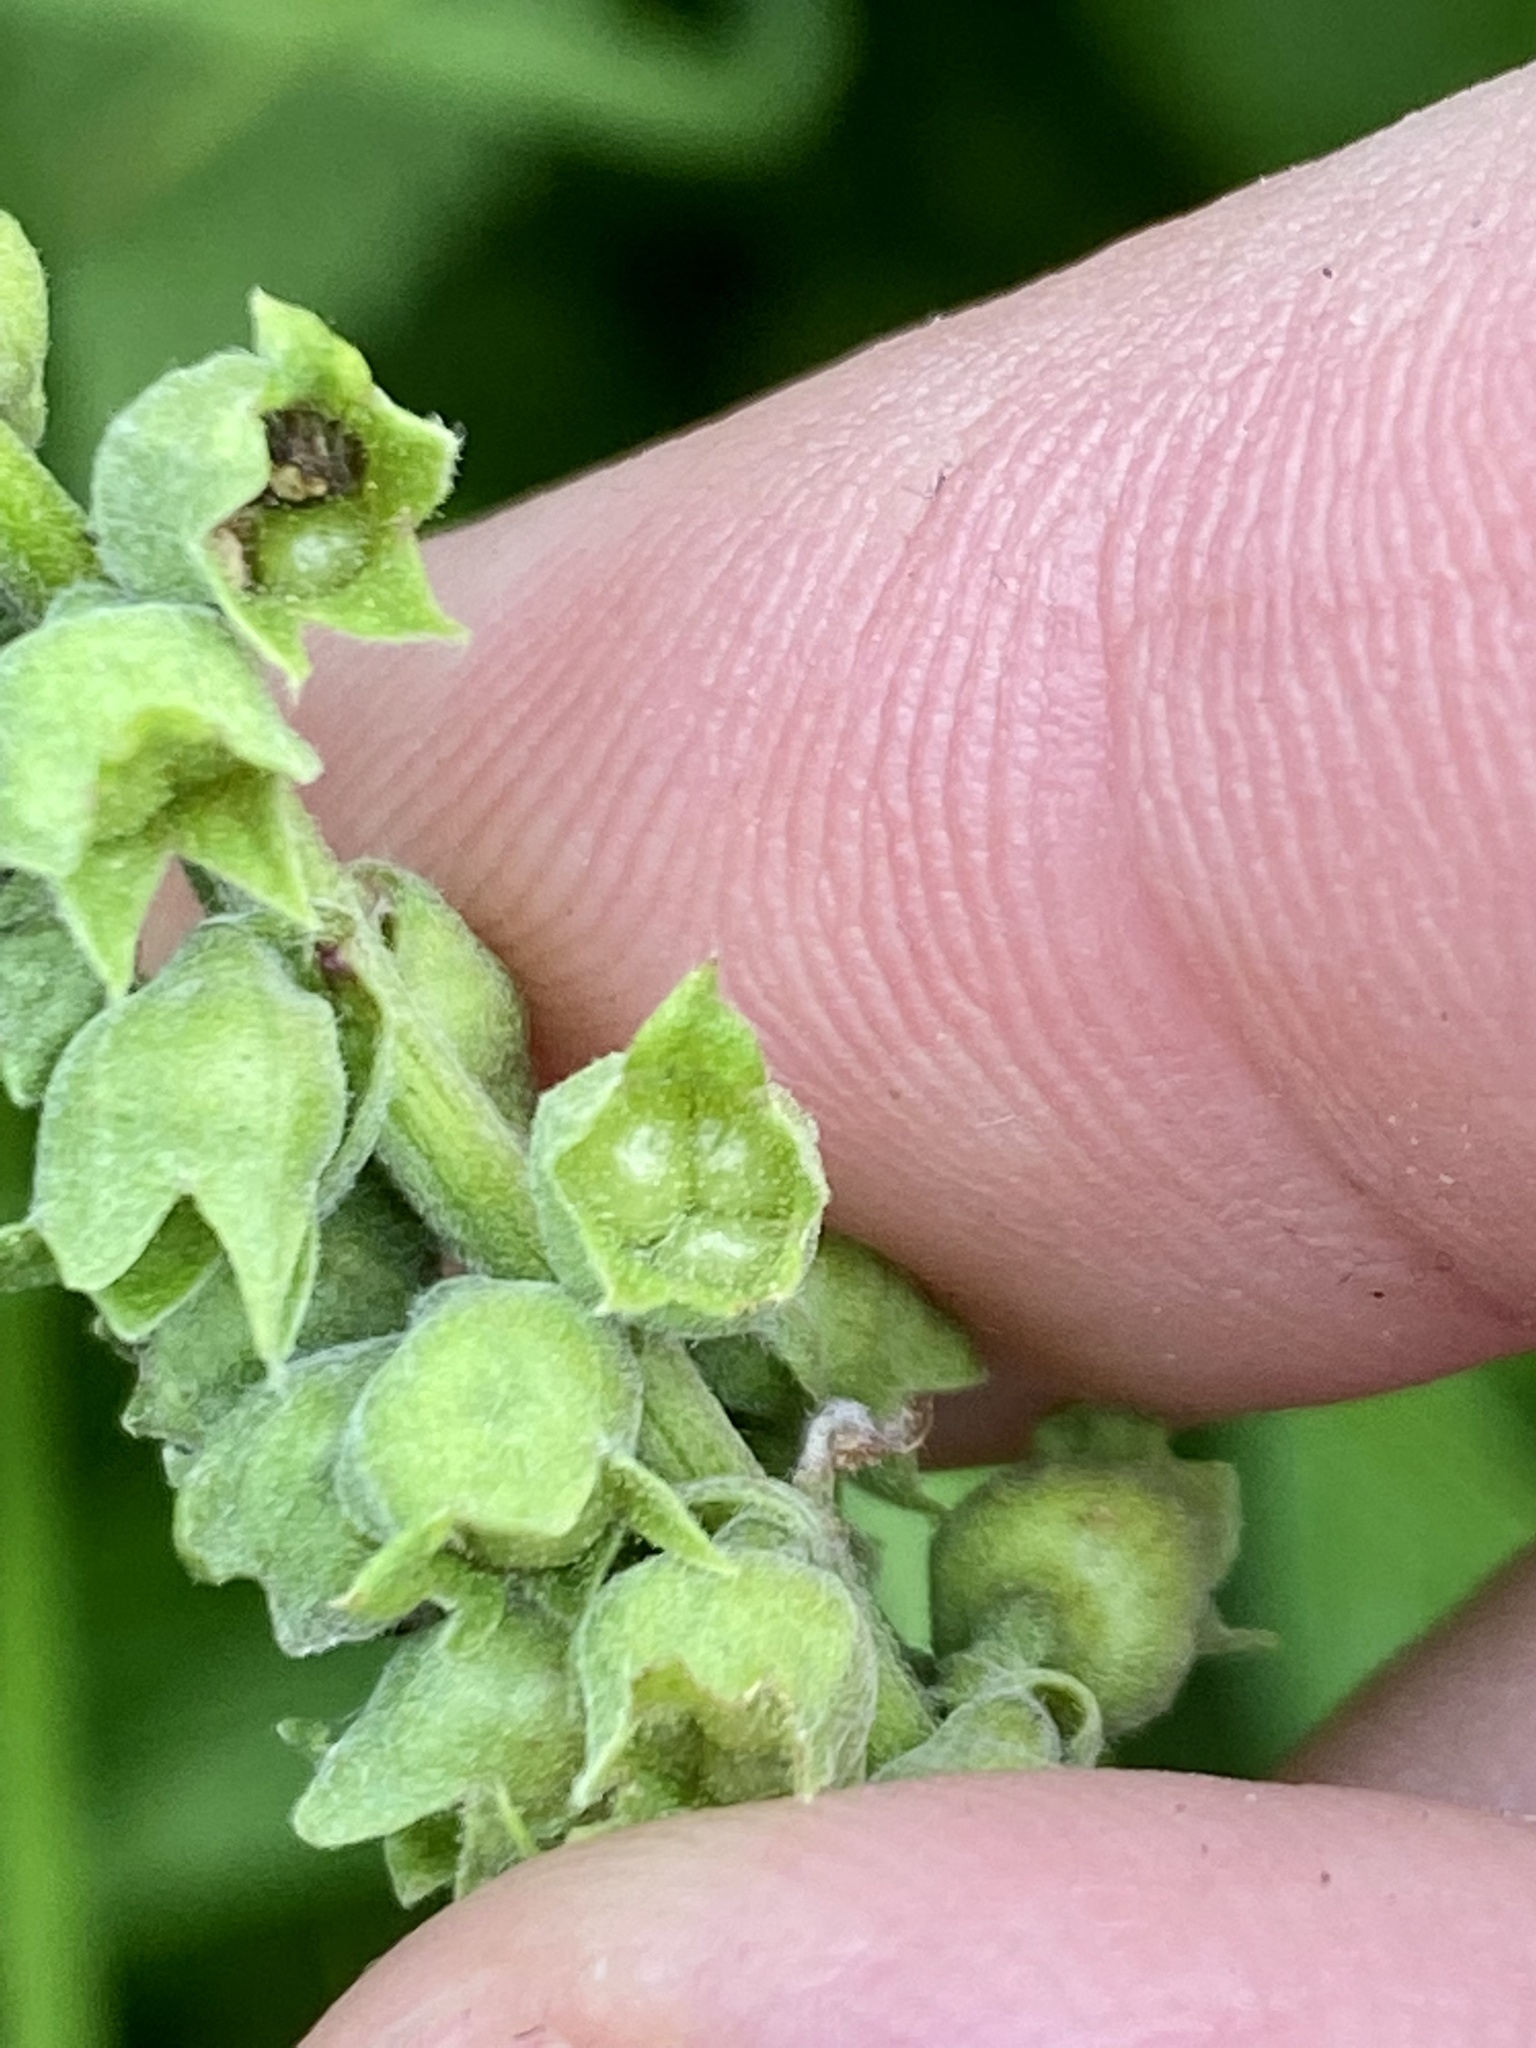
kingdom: Plantae
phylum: Tracheophyta
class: Magnoliopsida
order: Lamiales
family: Lamiaceae
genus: Teucrium
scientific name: Teucrium canadense
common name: American germander
